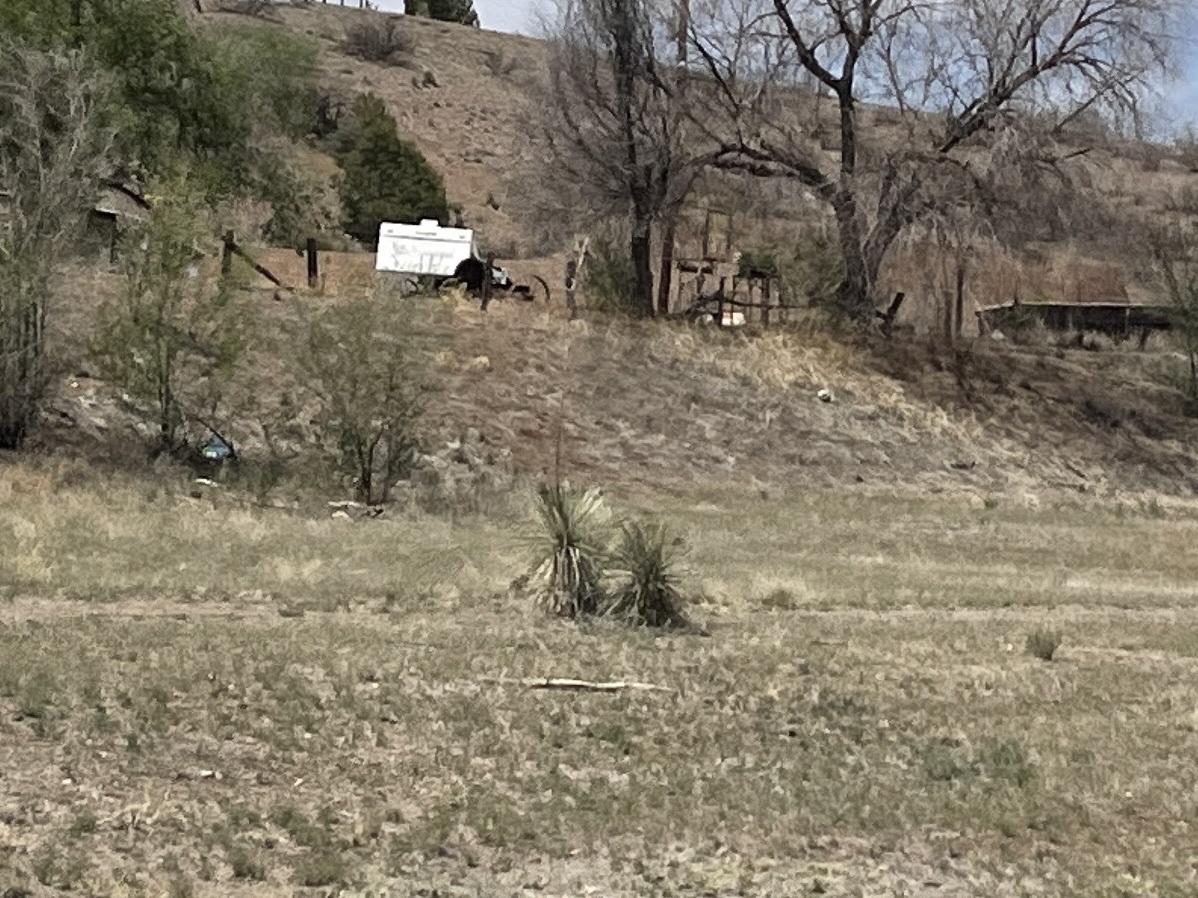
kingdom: Plantae
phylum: Tracheophyta
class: Liliopsida
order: Asparagales
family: Asparagaceae
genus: Yucca
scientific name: Yucca elata
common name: Palmella
